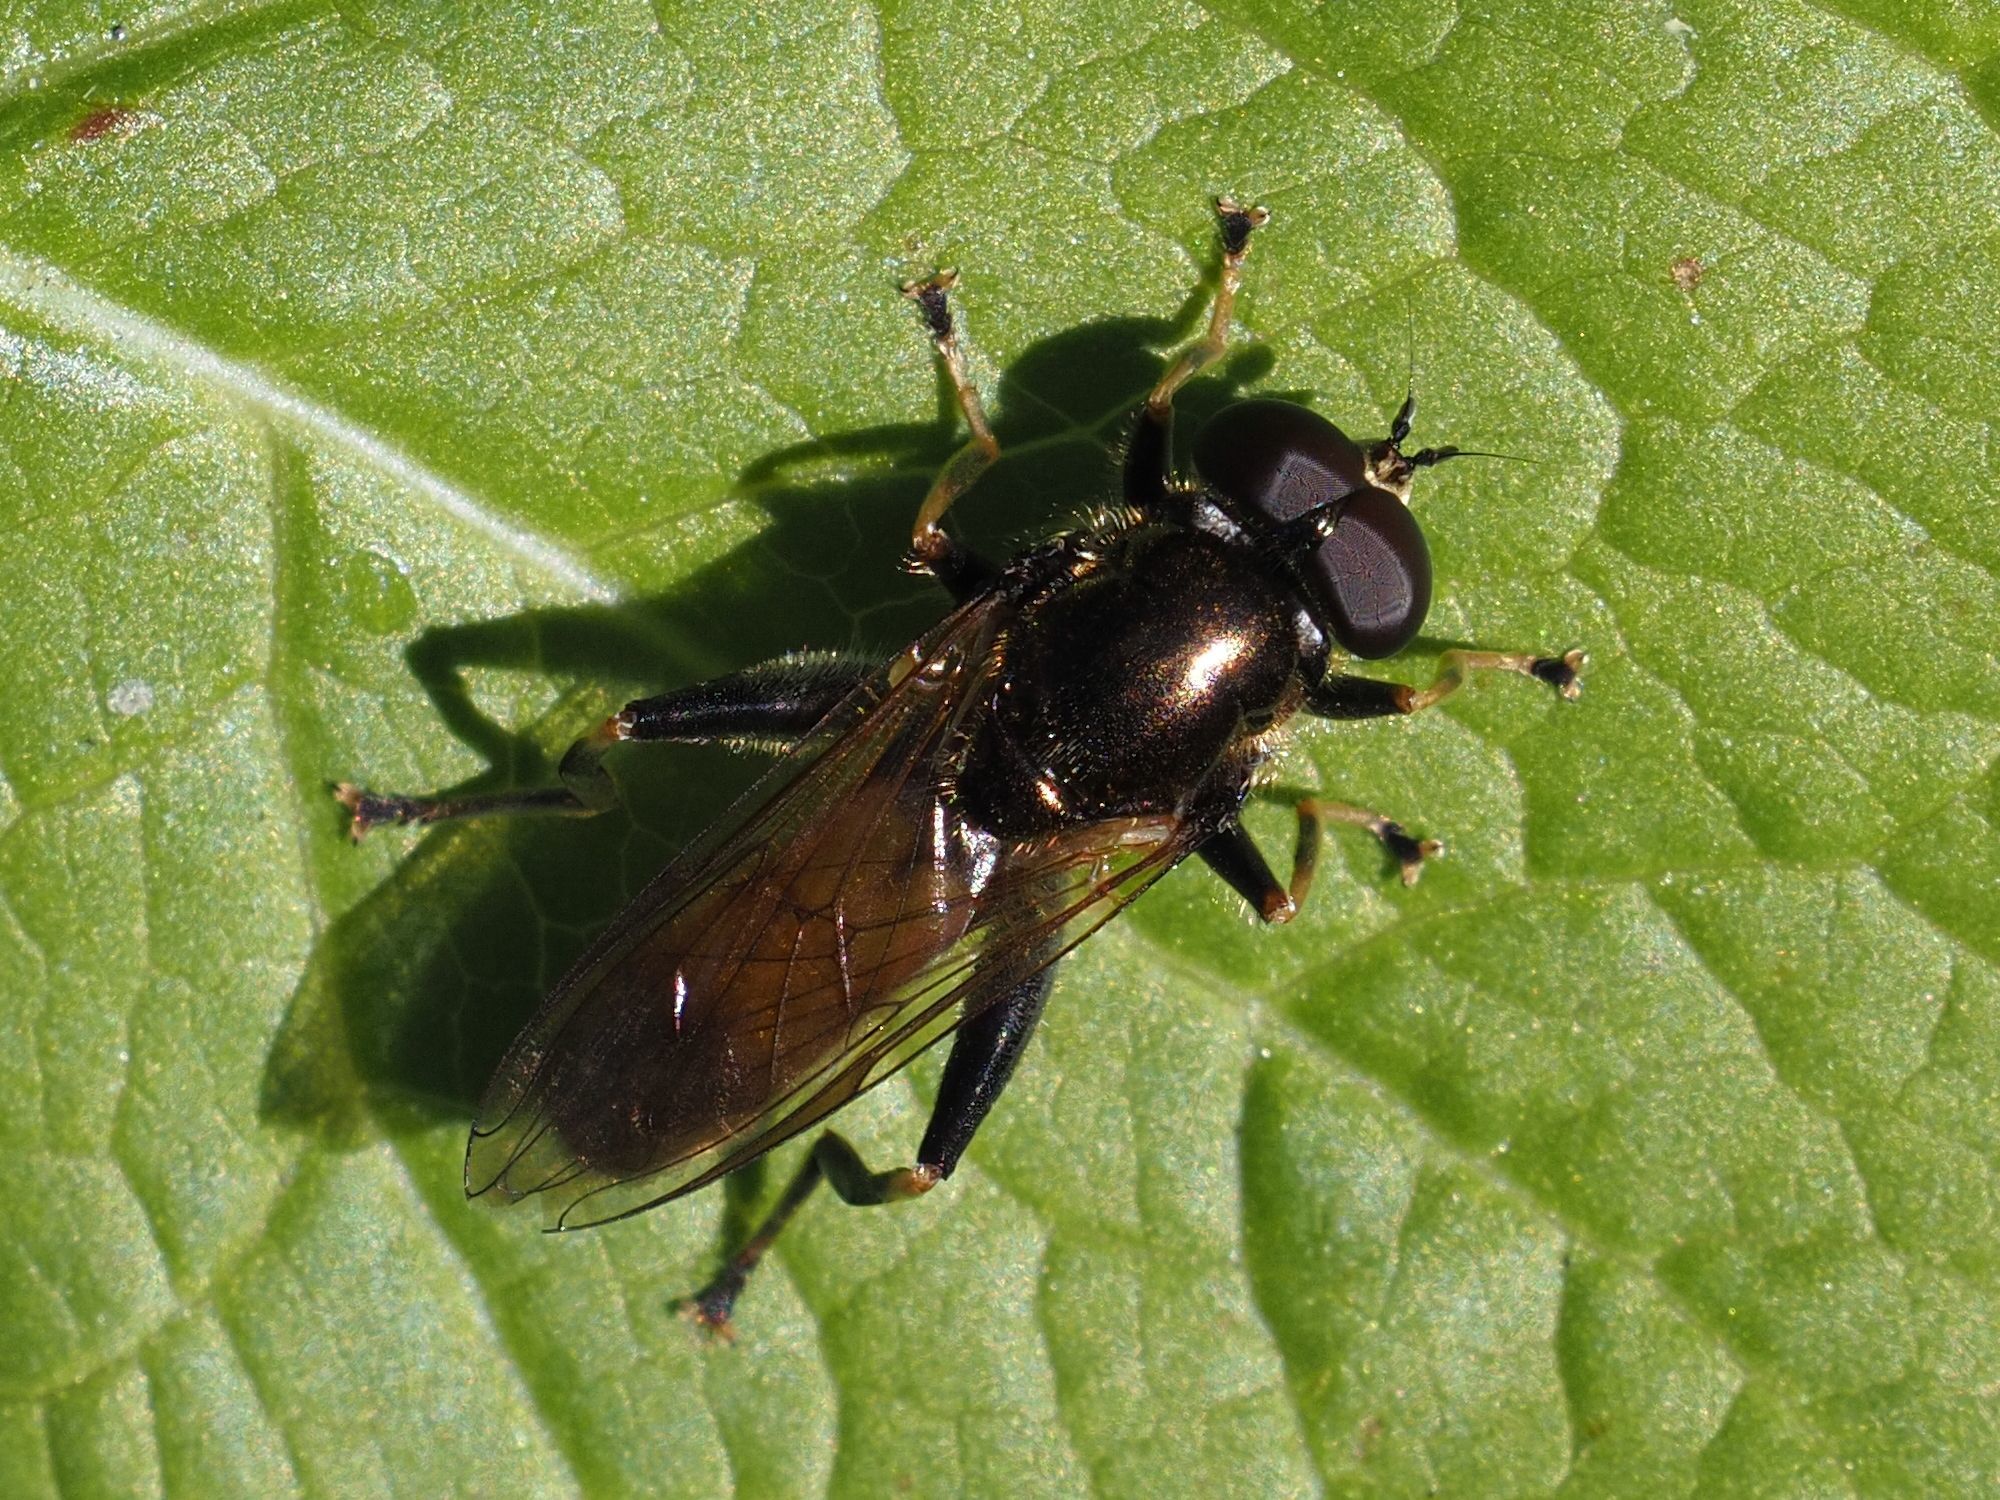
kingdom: Animalia
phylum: Arthropoda
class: Insecta
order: Diptera
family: Syrphidae
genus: Xylota
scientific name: Xylota segnis
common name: Brown-toed forest fly
